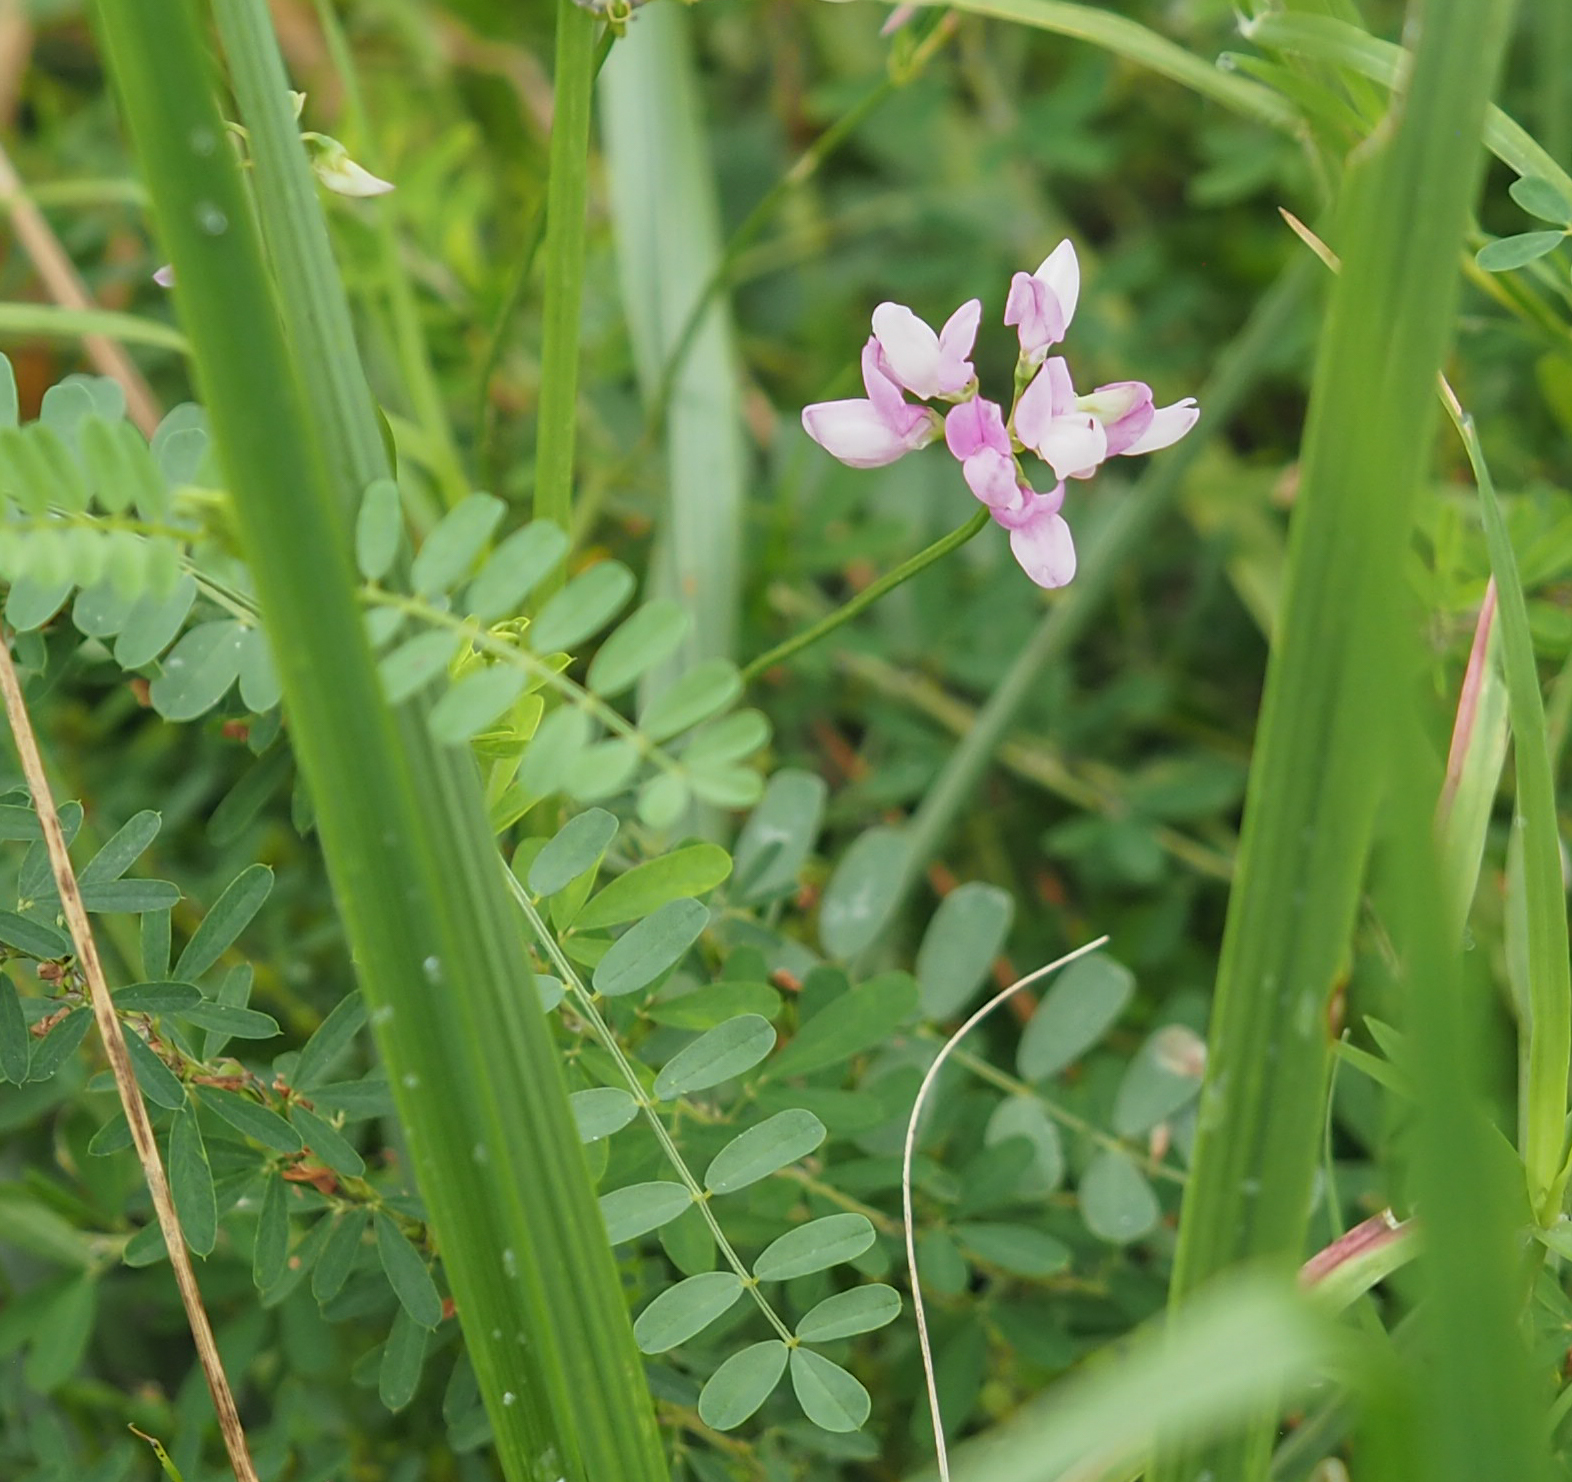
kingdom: Plantae
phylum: Tracheophyta
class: Magnoliopsida
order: Fabales
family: Fabaceae
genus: Coronilla
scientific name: Coronilla varia
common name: Crownvetch
